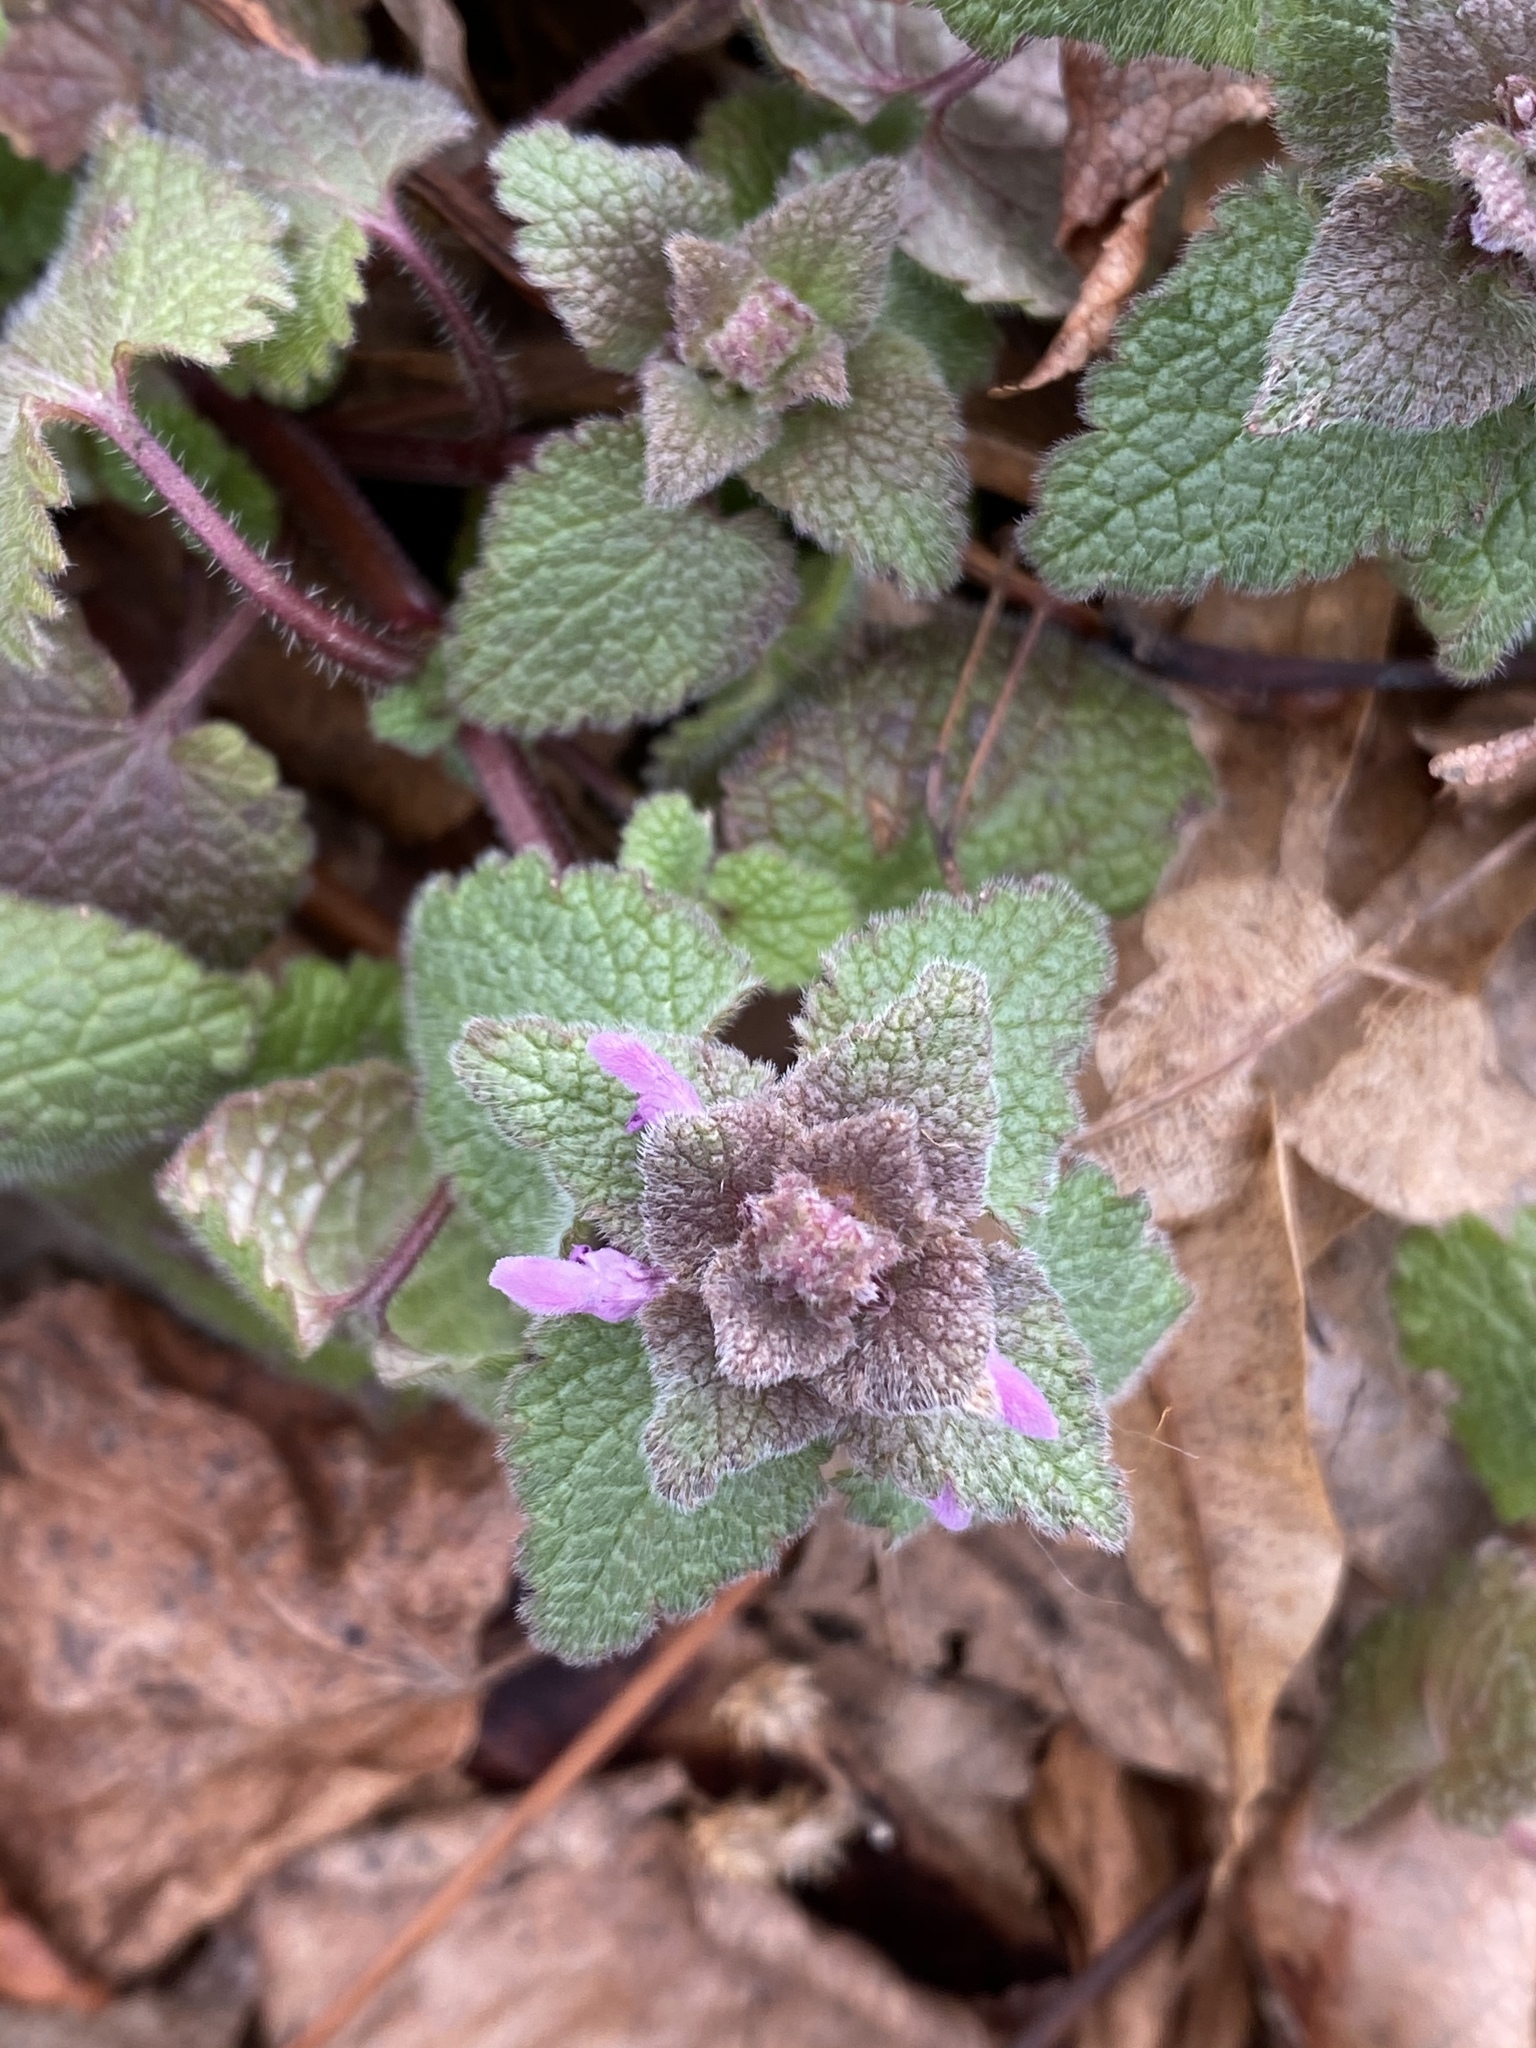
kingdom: Plantae
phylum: Tracheophyta
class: Magnoliopsida
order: Lamiales
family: Lamiaceae
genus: Lamium
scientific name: Lamium purpureum
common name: Red dead-nettle
